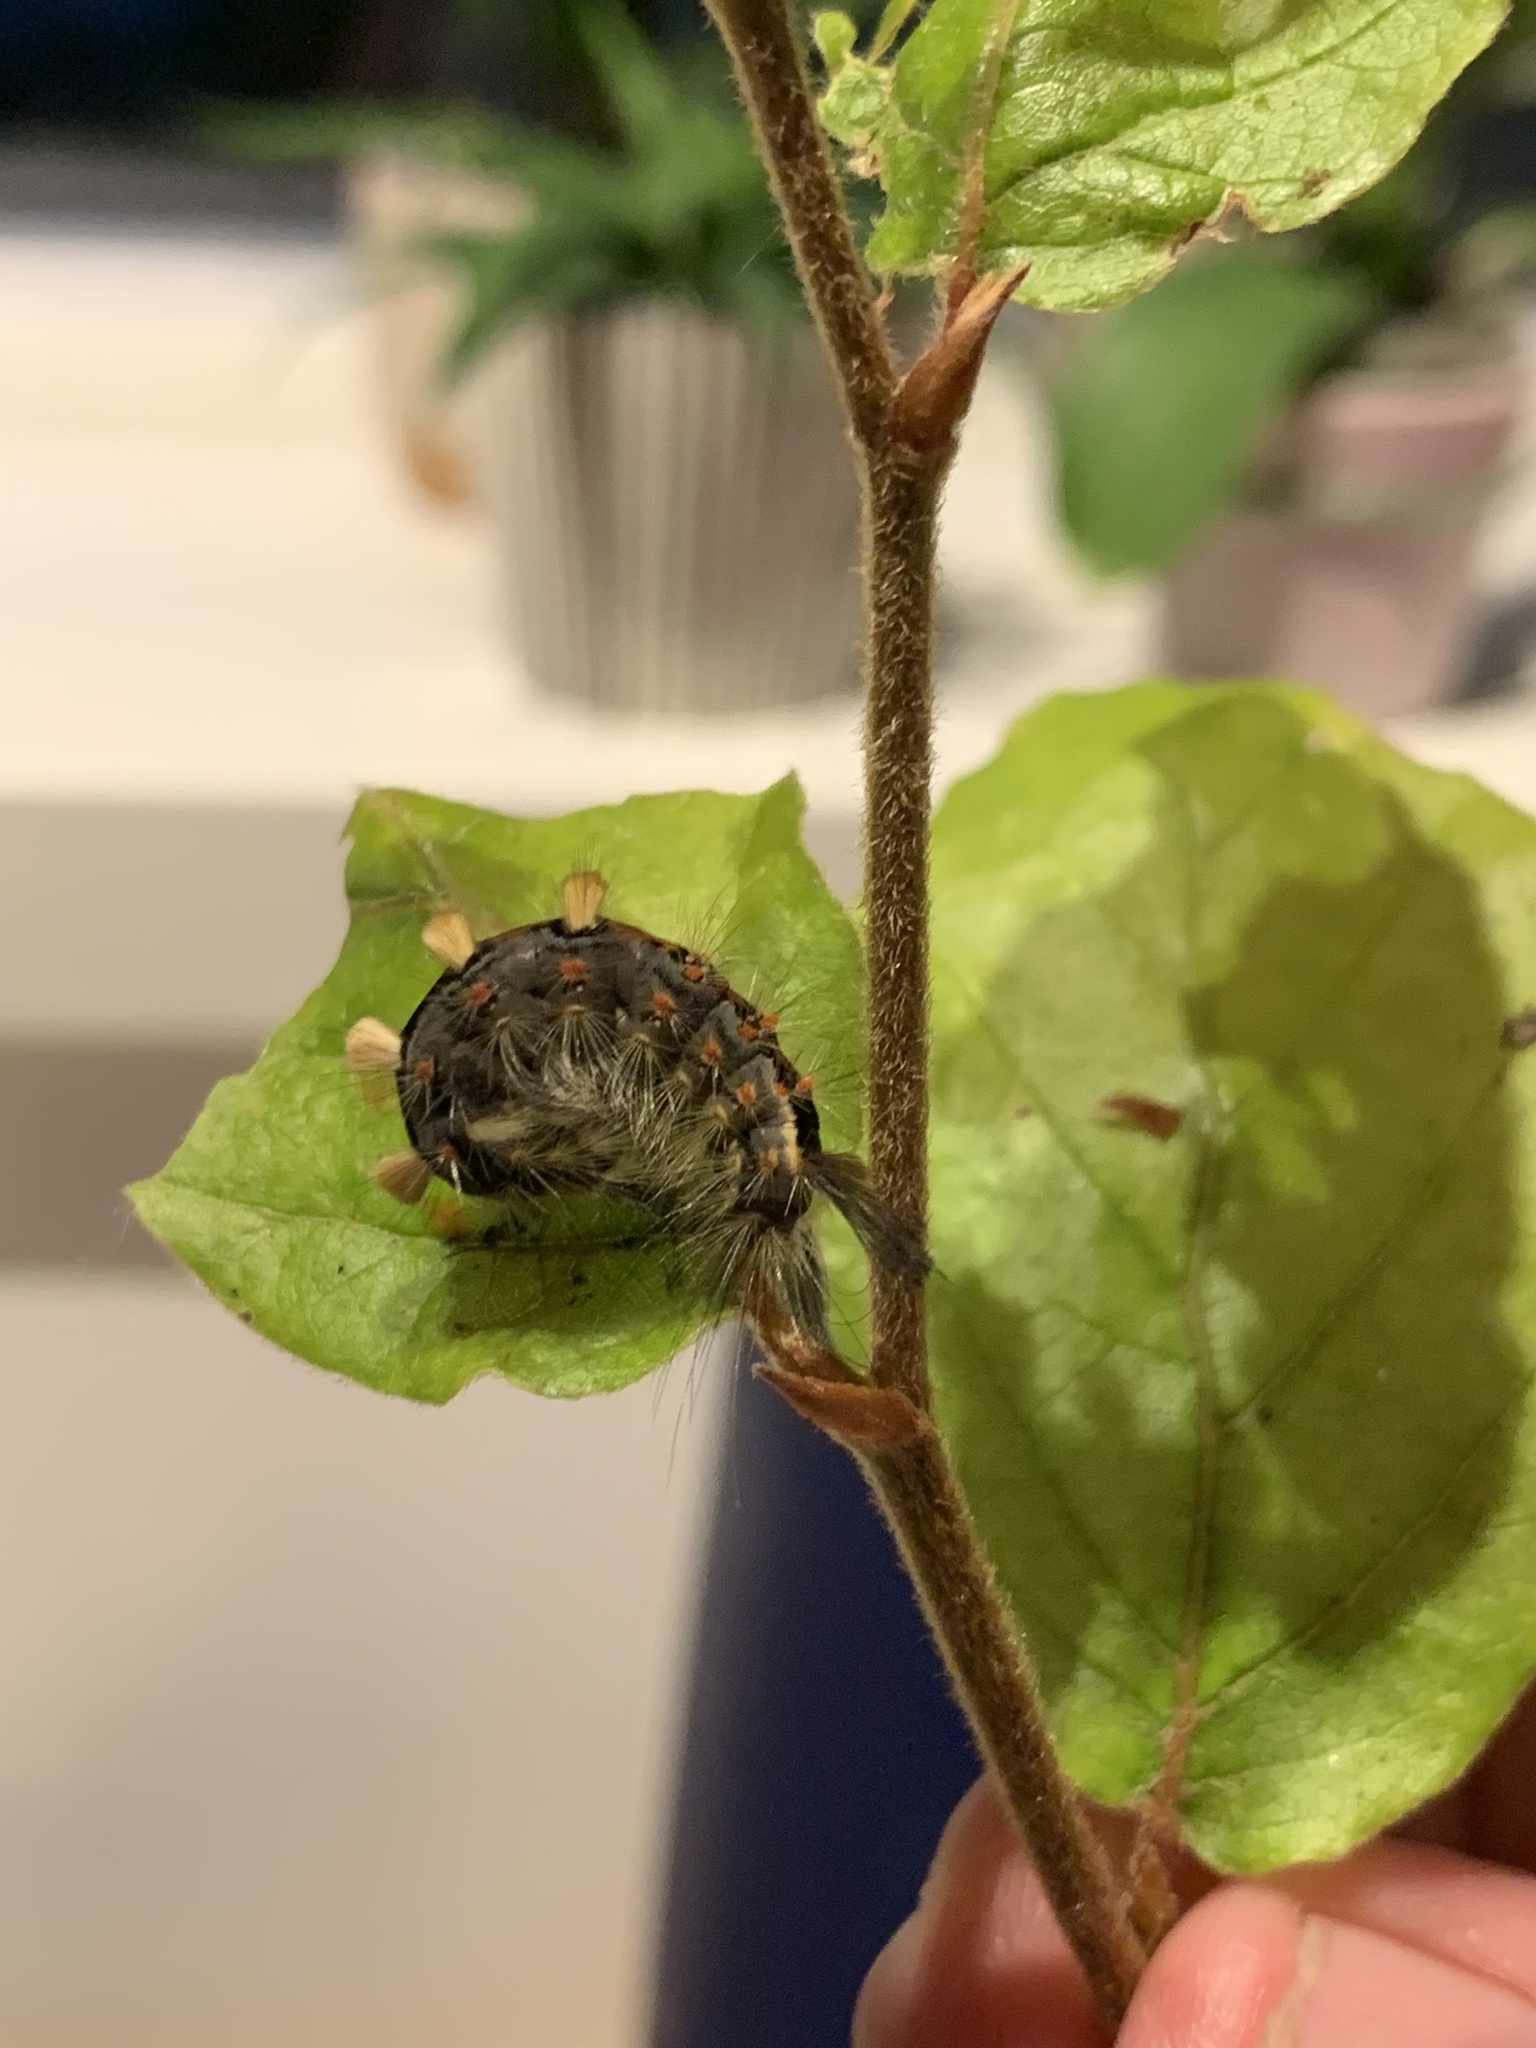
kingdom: Animalia
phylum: Arthropoda
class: Insecta
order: Lepidoptera
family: Erebidae
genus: Orgyia
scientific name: Orgyia antiqua
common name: Vapourer
